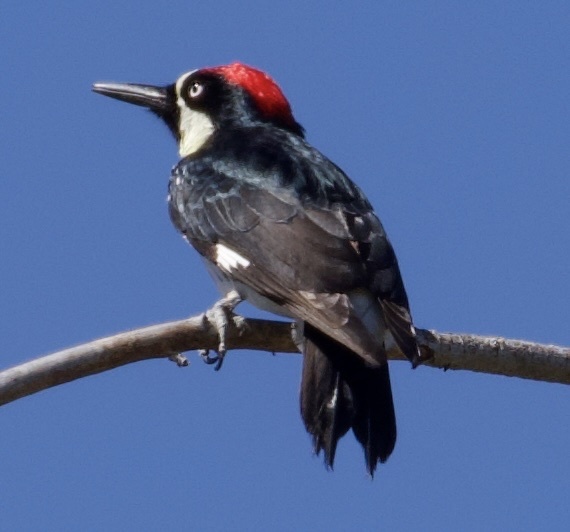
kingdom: Animalia
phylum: Chordata
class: Aves
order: Piciformes
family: Picidae
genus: Melanerpes
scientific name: Melanerpes formicivorus
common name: Acorn woodpecker
